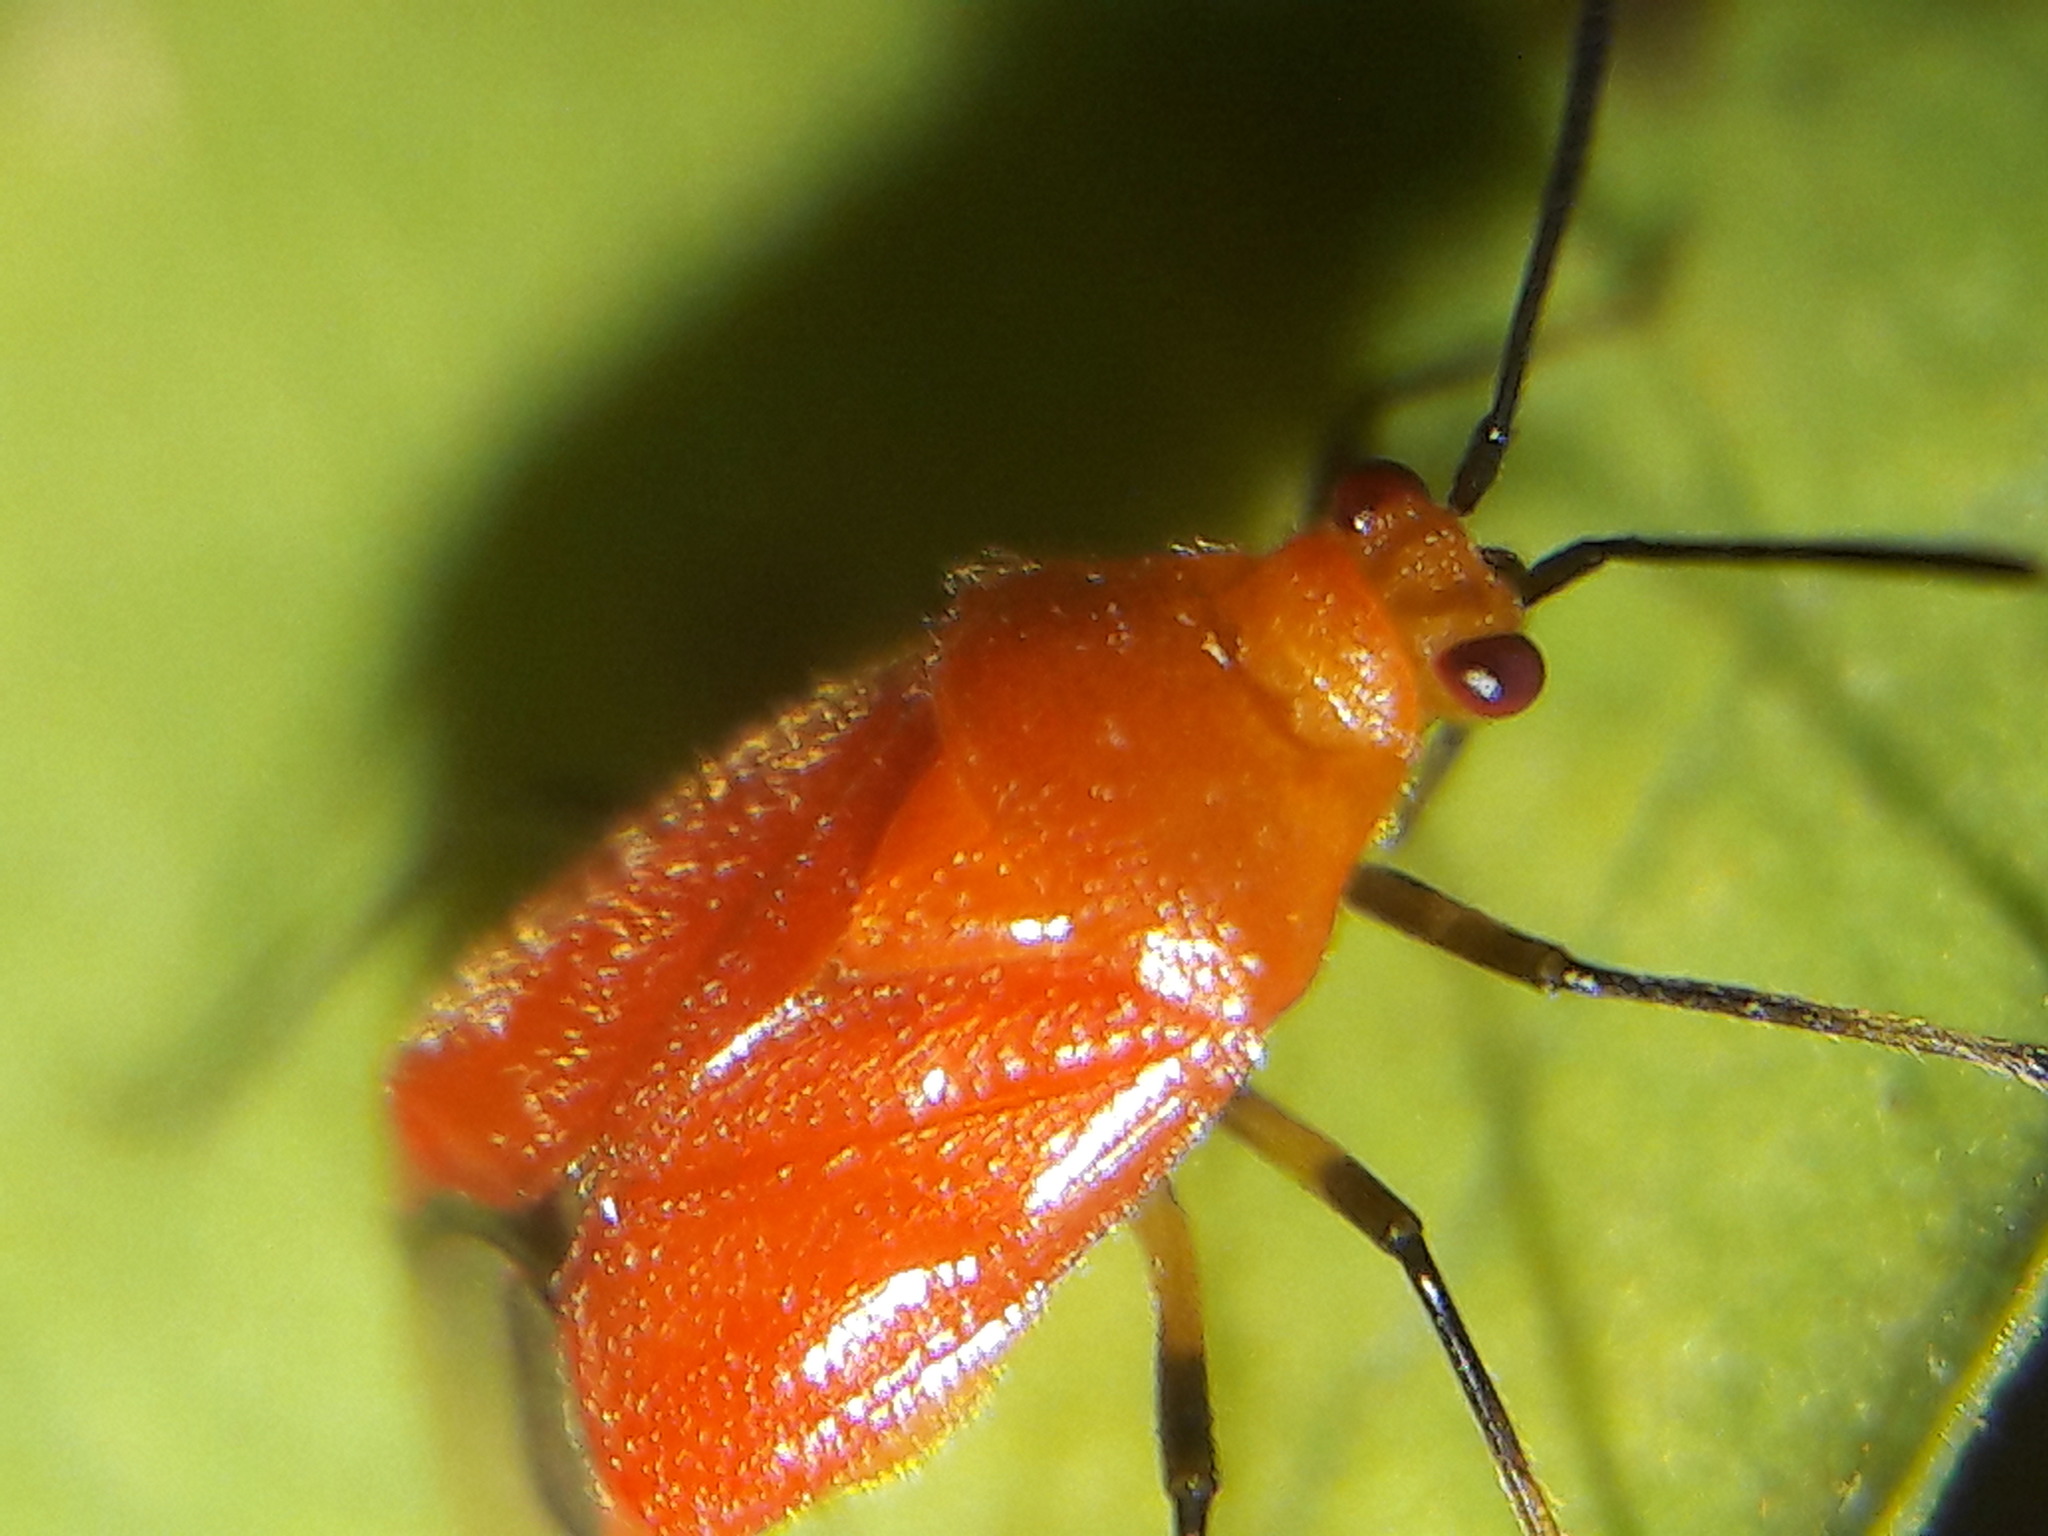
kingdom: Animalia
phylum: Arthropoda
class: Insecta
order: Hemiptera
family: Miridae
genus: Ambracius
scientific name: Ambracius dufouri
